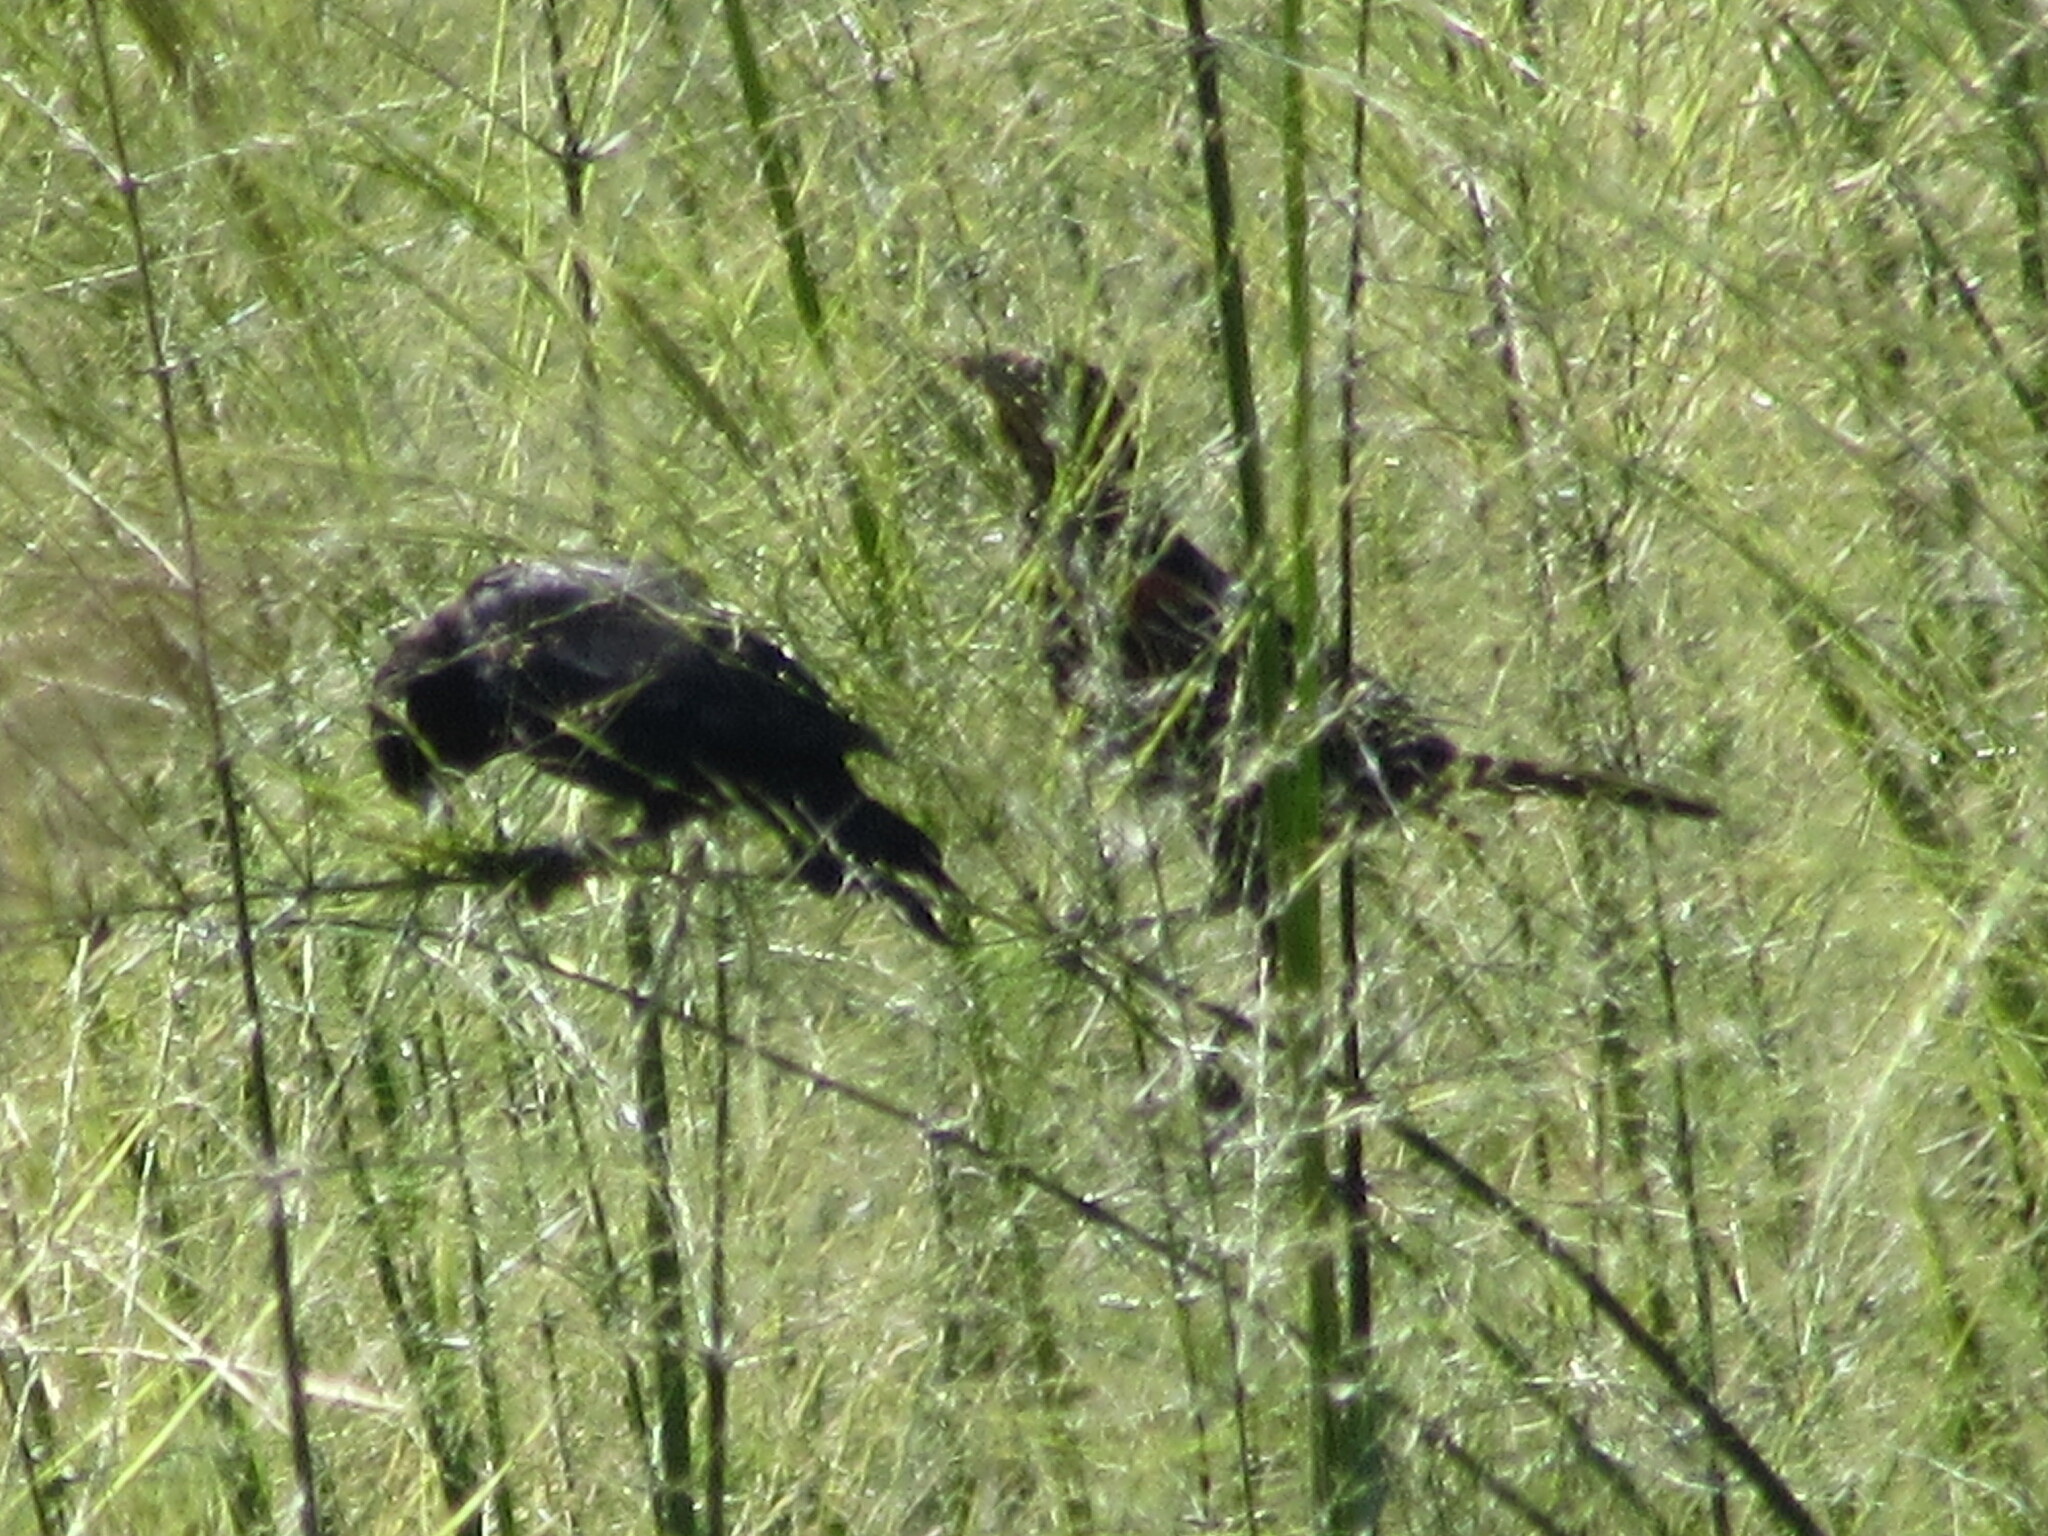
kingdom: Animalia
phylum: Chordata
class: Aves
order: Passeriformes
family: Icteridae
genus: Molothrus
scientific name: Molothrus ater
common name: Brown-headed cowbird
